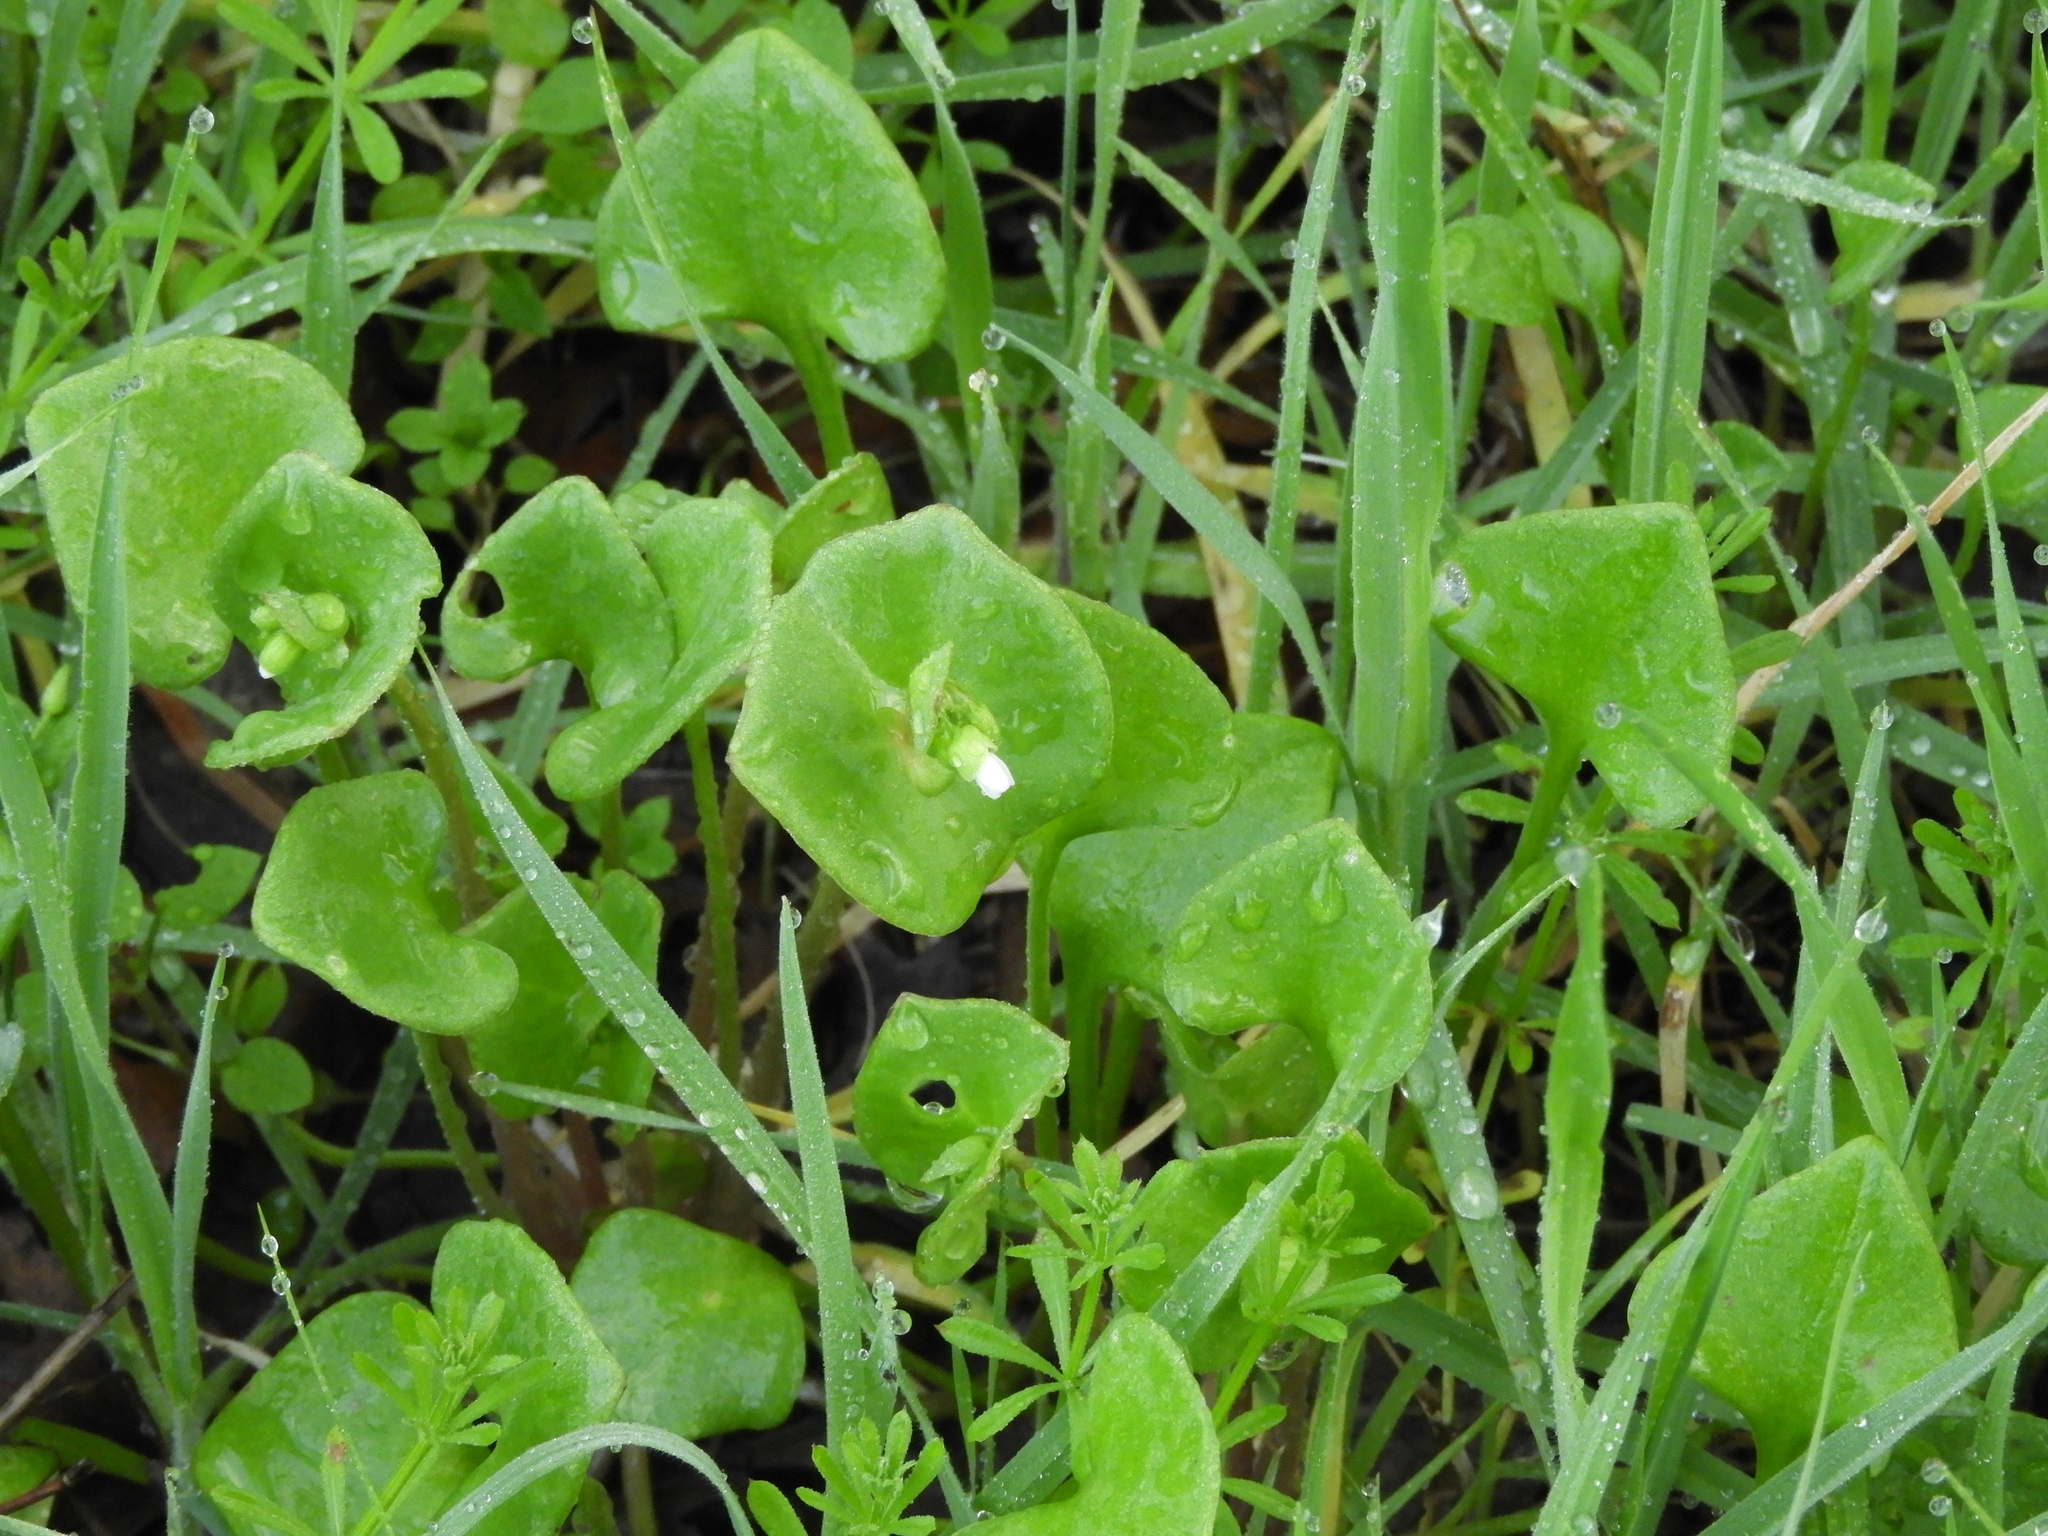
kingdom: Plantae
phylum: Tracheophyta
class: Magnoliopsida
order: Caryophyllales
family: Montiaceae
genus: Claytonia
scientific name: Claytonia perfoliata
